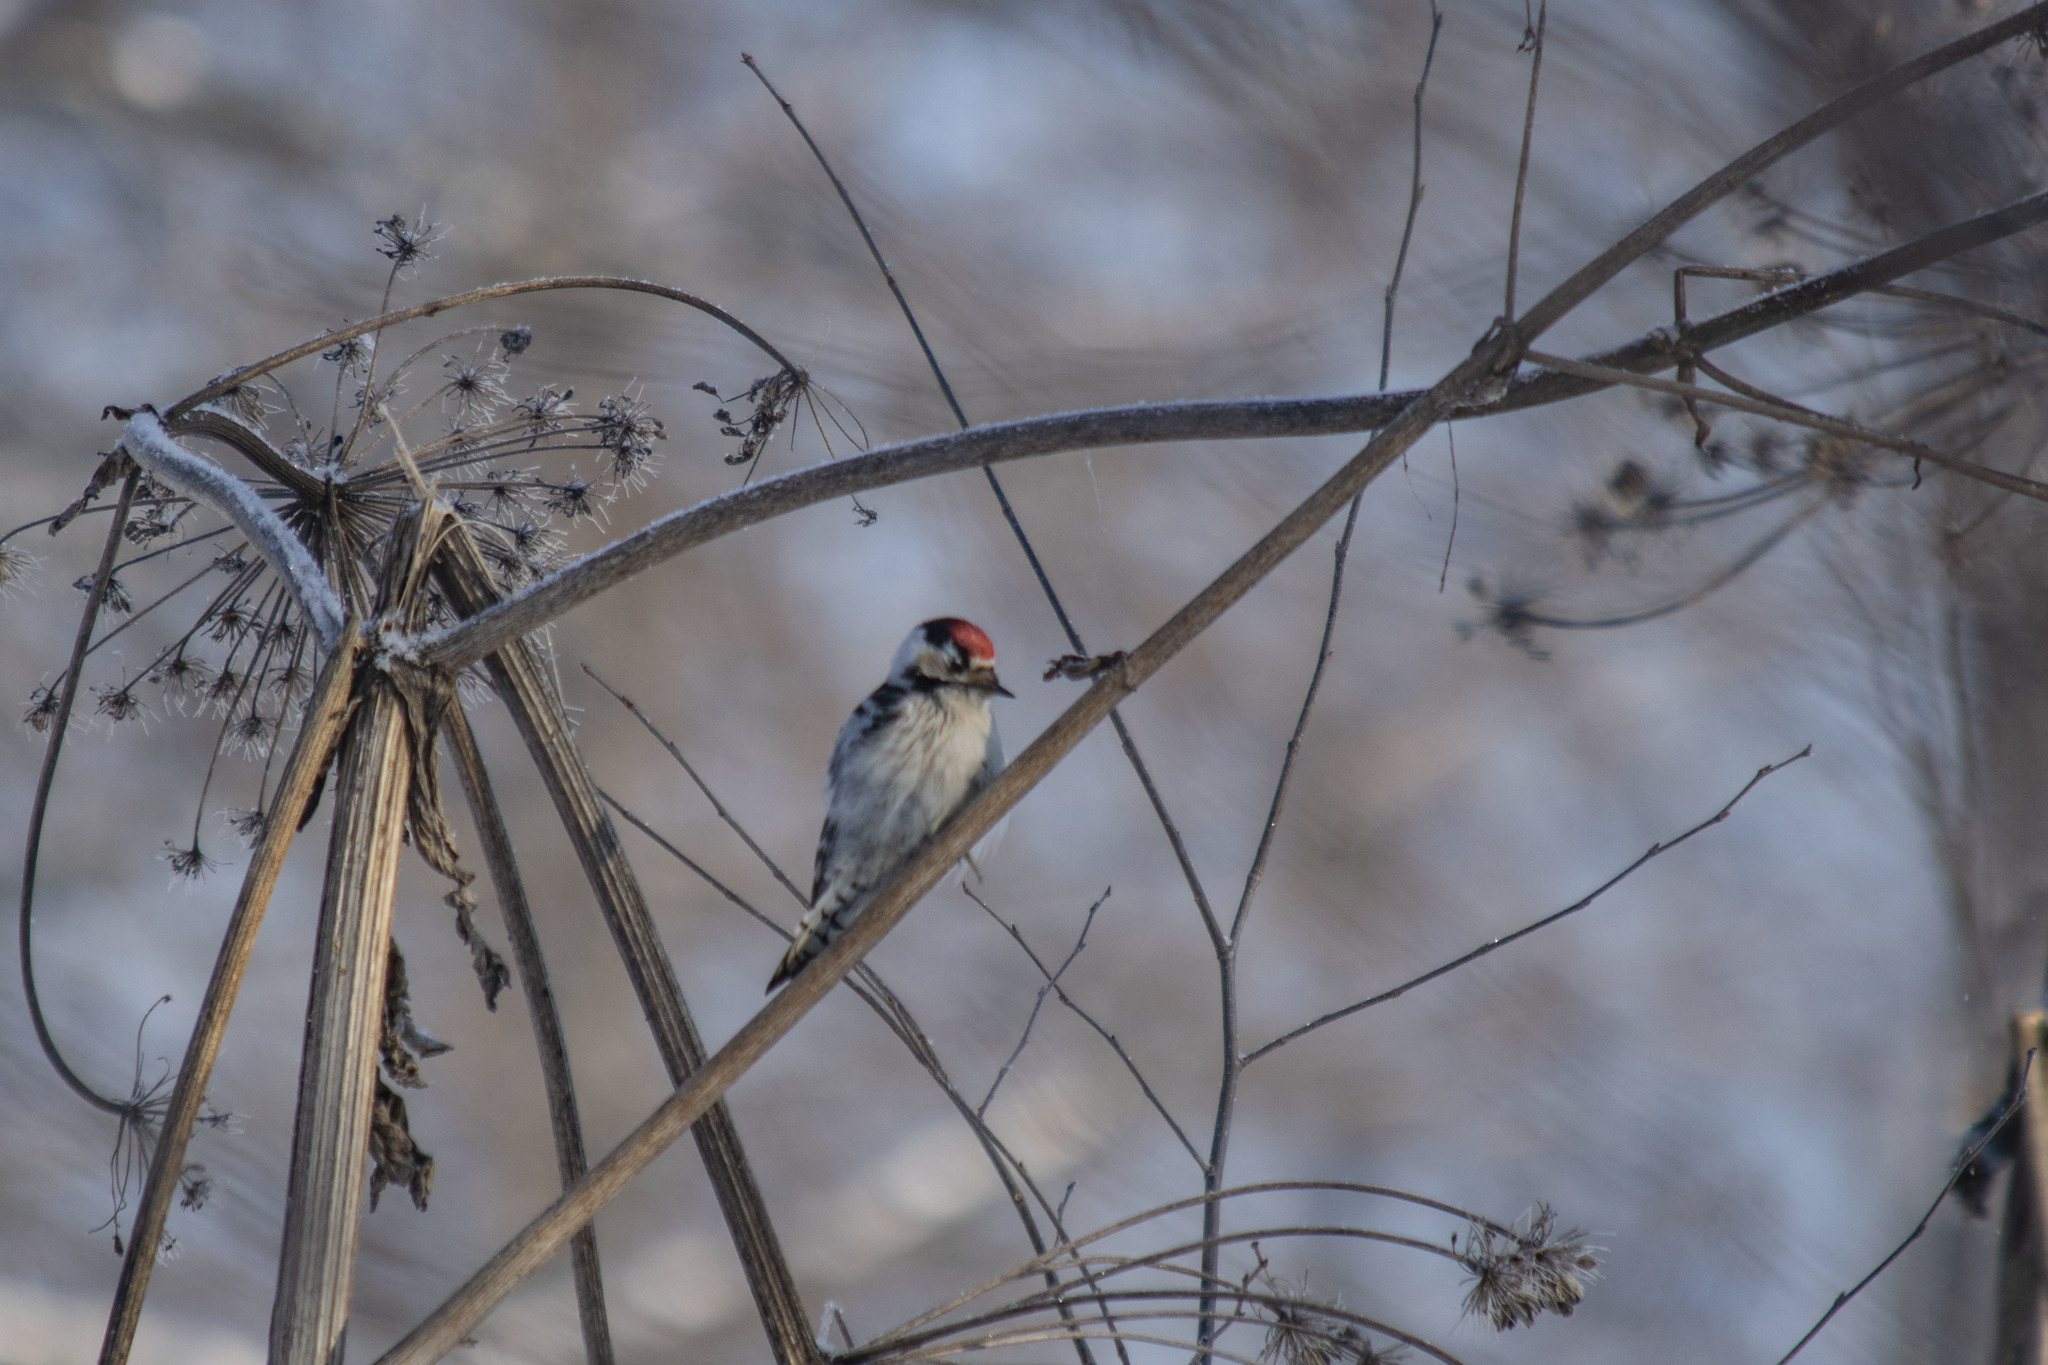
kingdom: Animalia
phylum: Chordata
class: Aves
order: Piciformes
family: Picidae
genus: Dryobates
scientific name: Dryobates minor
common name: Lesser spotted woodpecker
